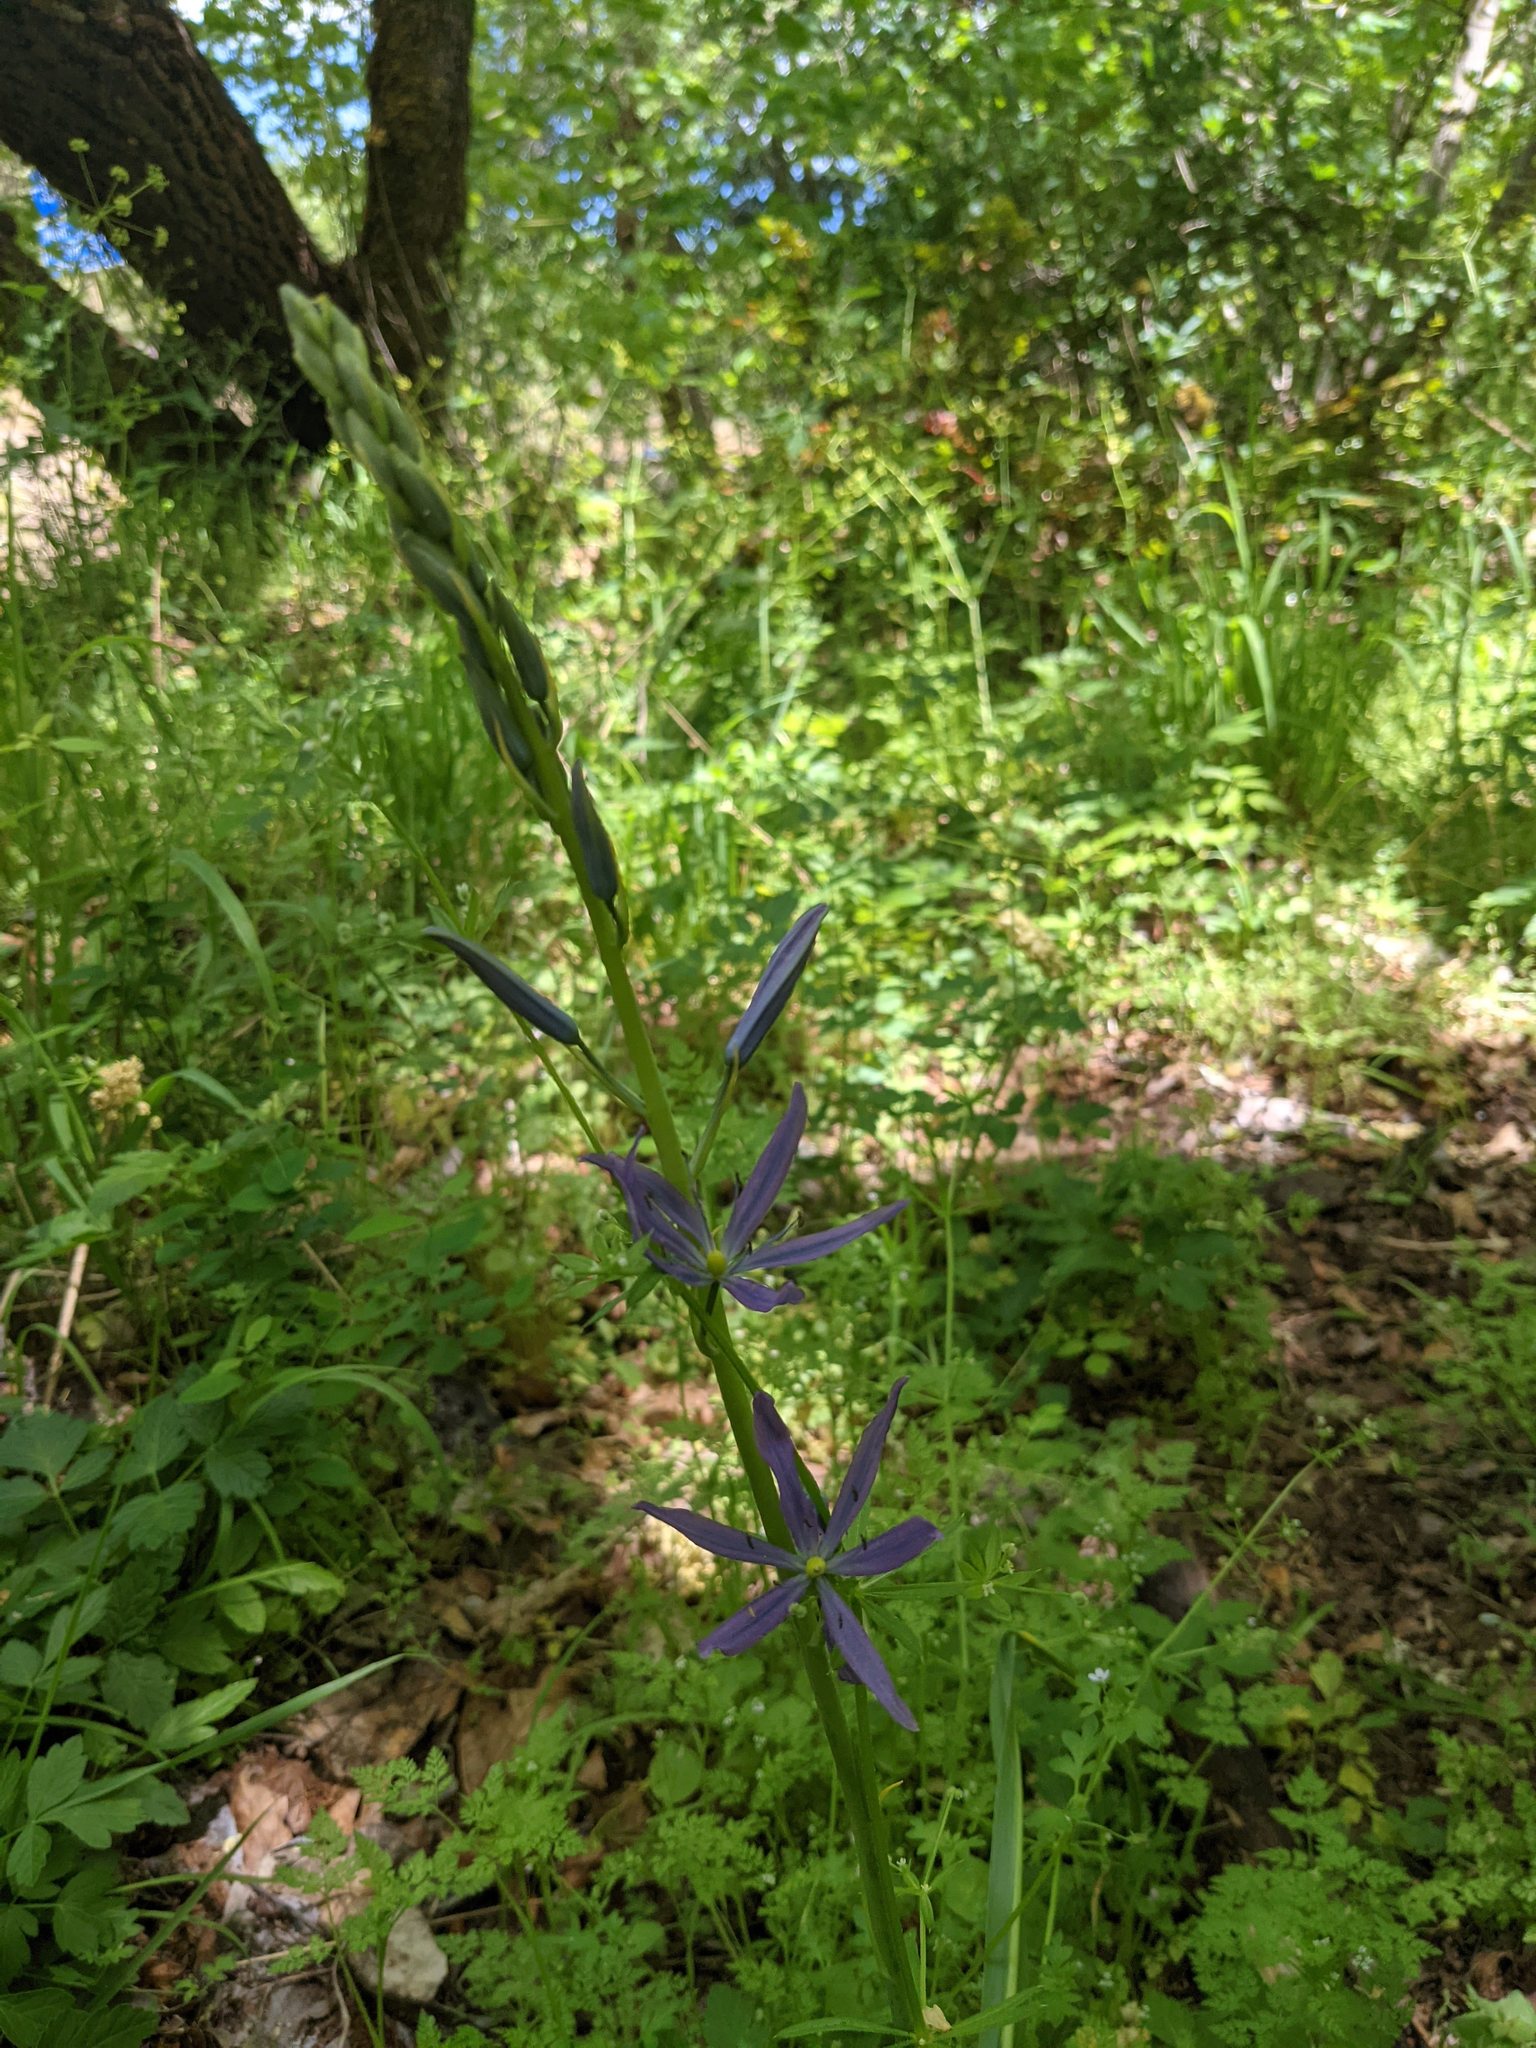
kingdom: Plantae
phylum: Tracheophyta
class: Liliopsida
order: Asparagales
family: Asparagaceae
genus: Camassia
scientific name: Camassia leichtlinii
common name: Leichtlin's camas
